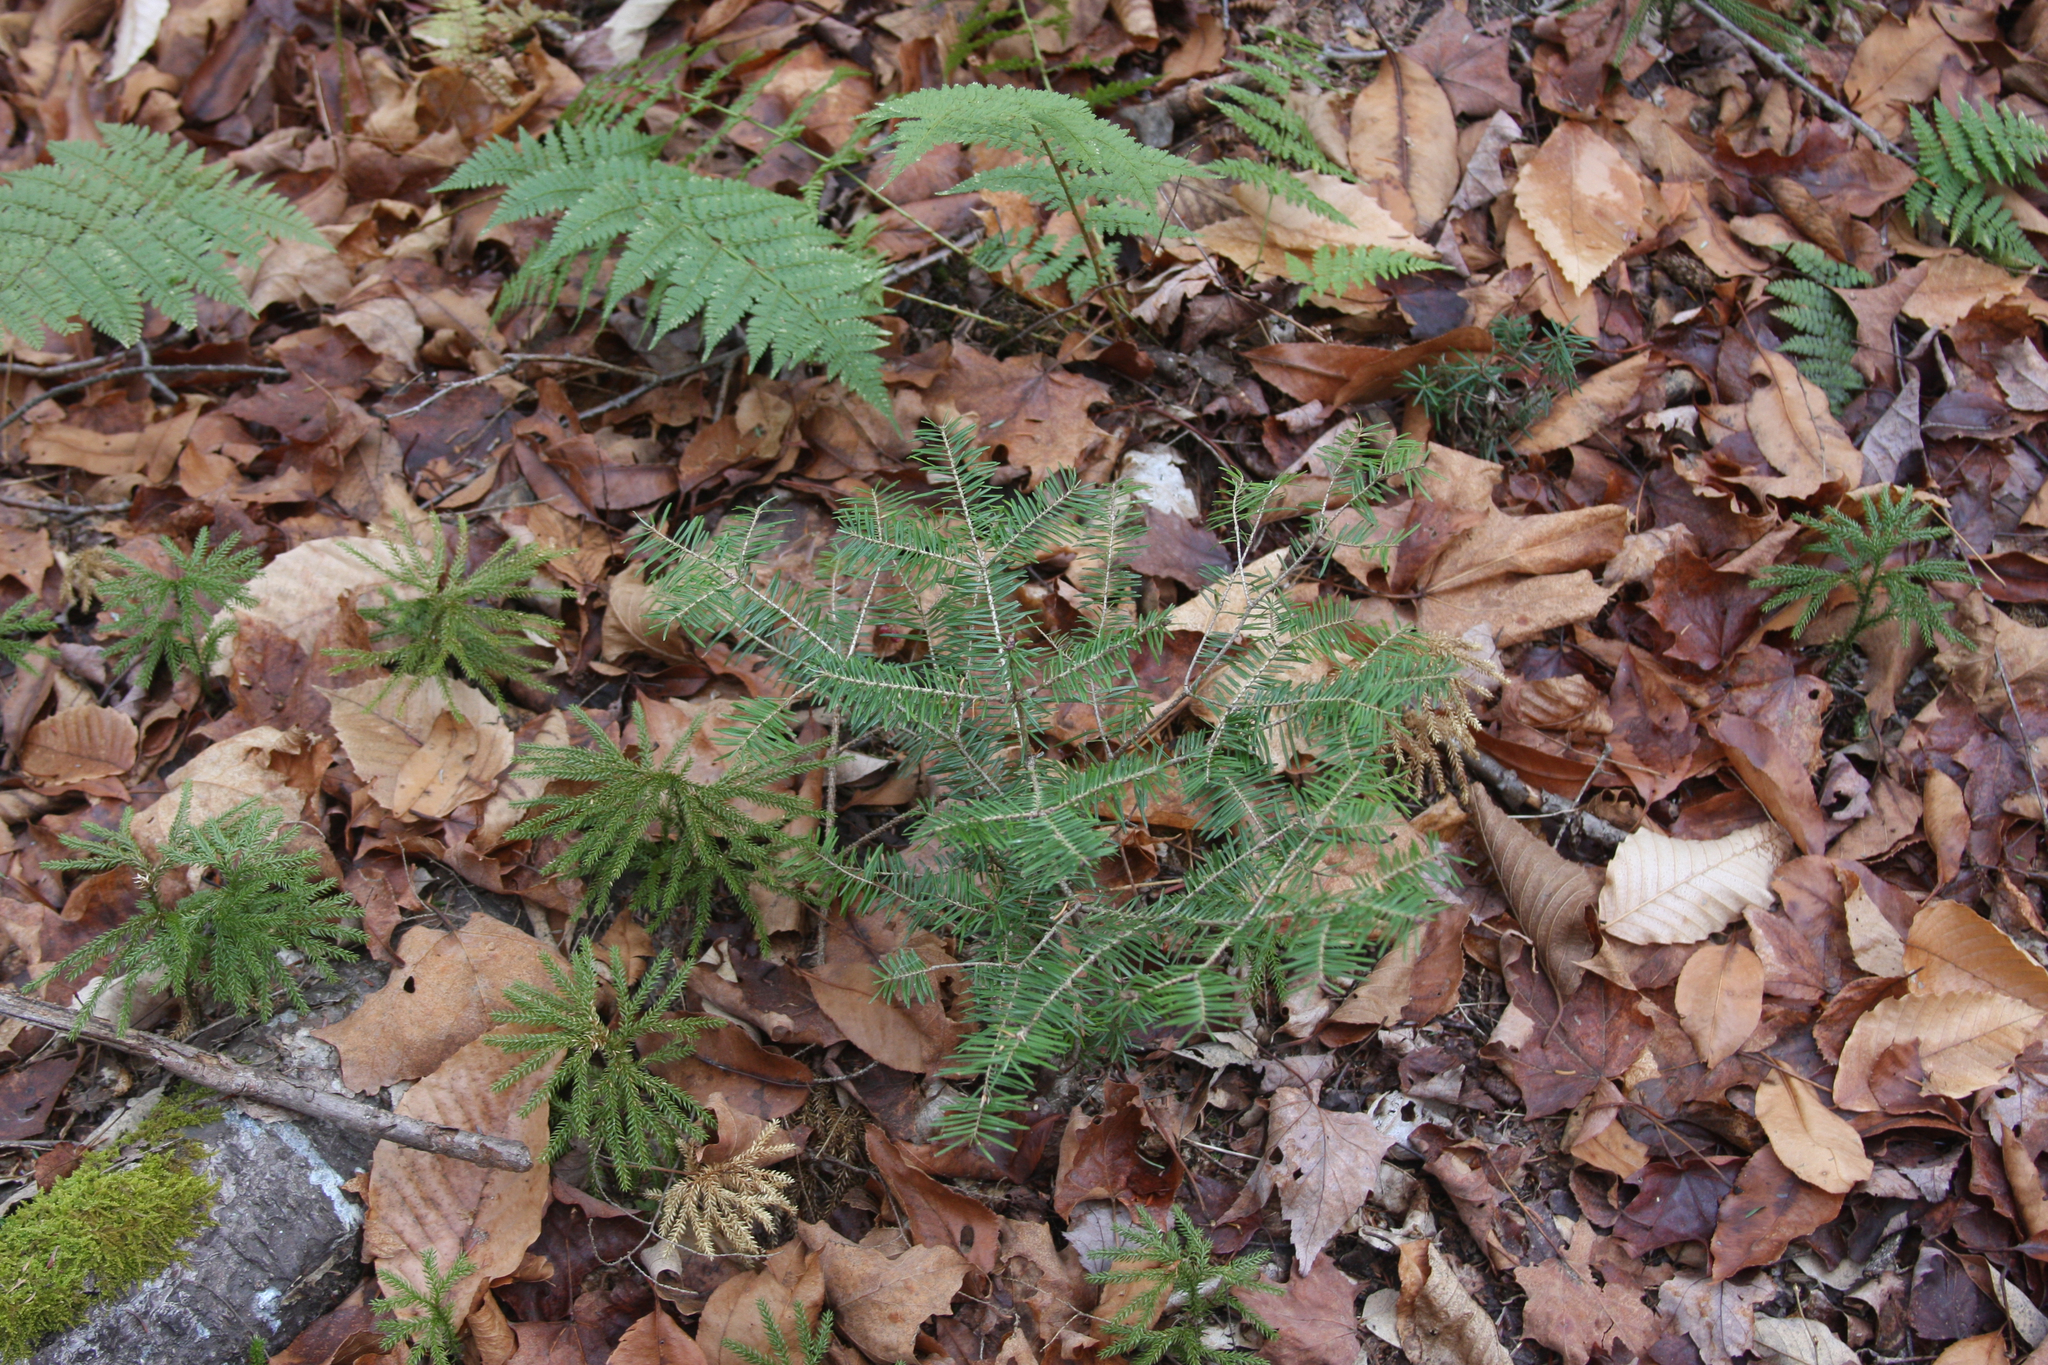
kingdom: Plantae
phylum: Tracheophyta
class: Pinopsida
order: Pinales
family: Pinaceae
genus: Abies
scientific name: Abies balsamea
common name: Balsam fir
